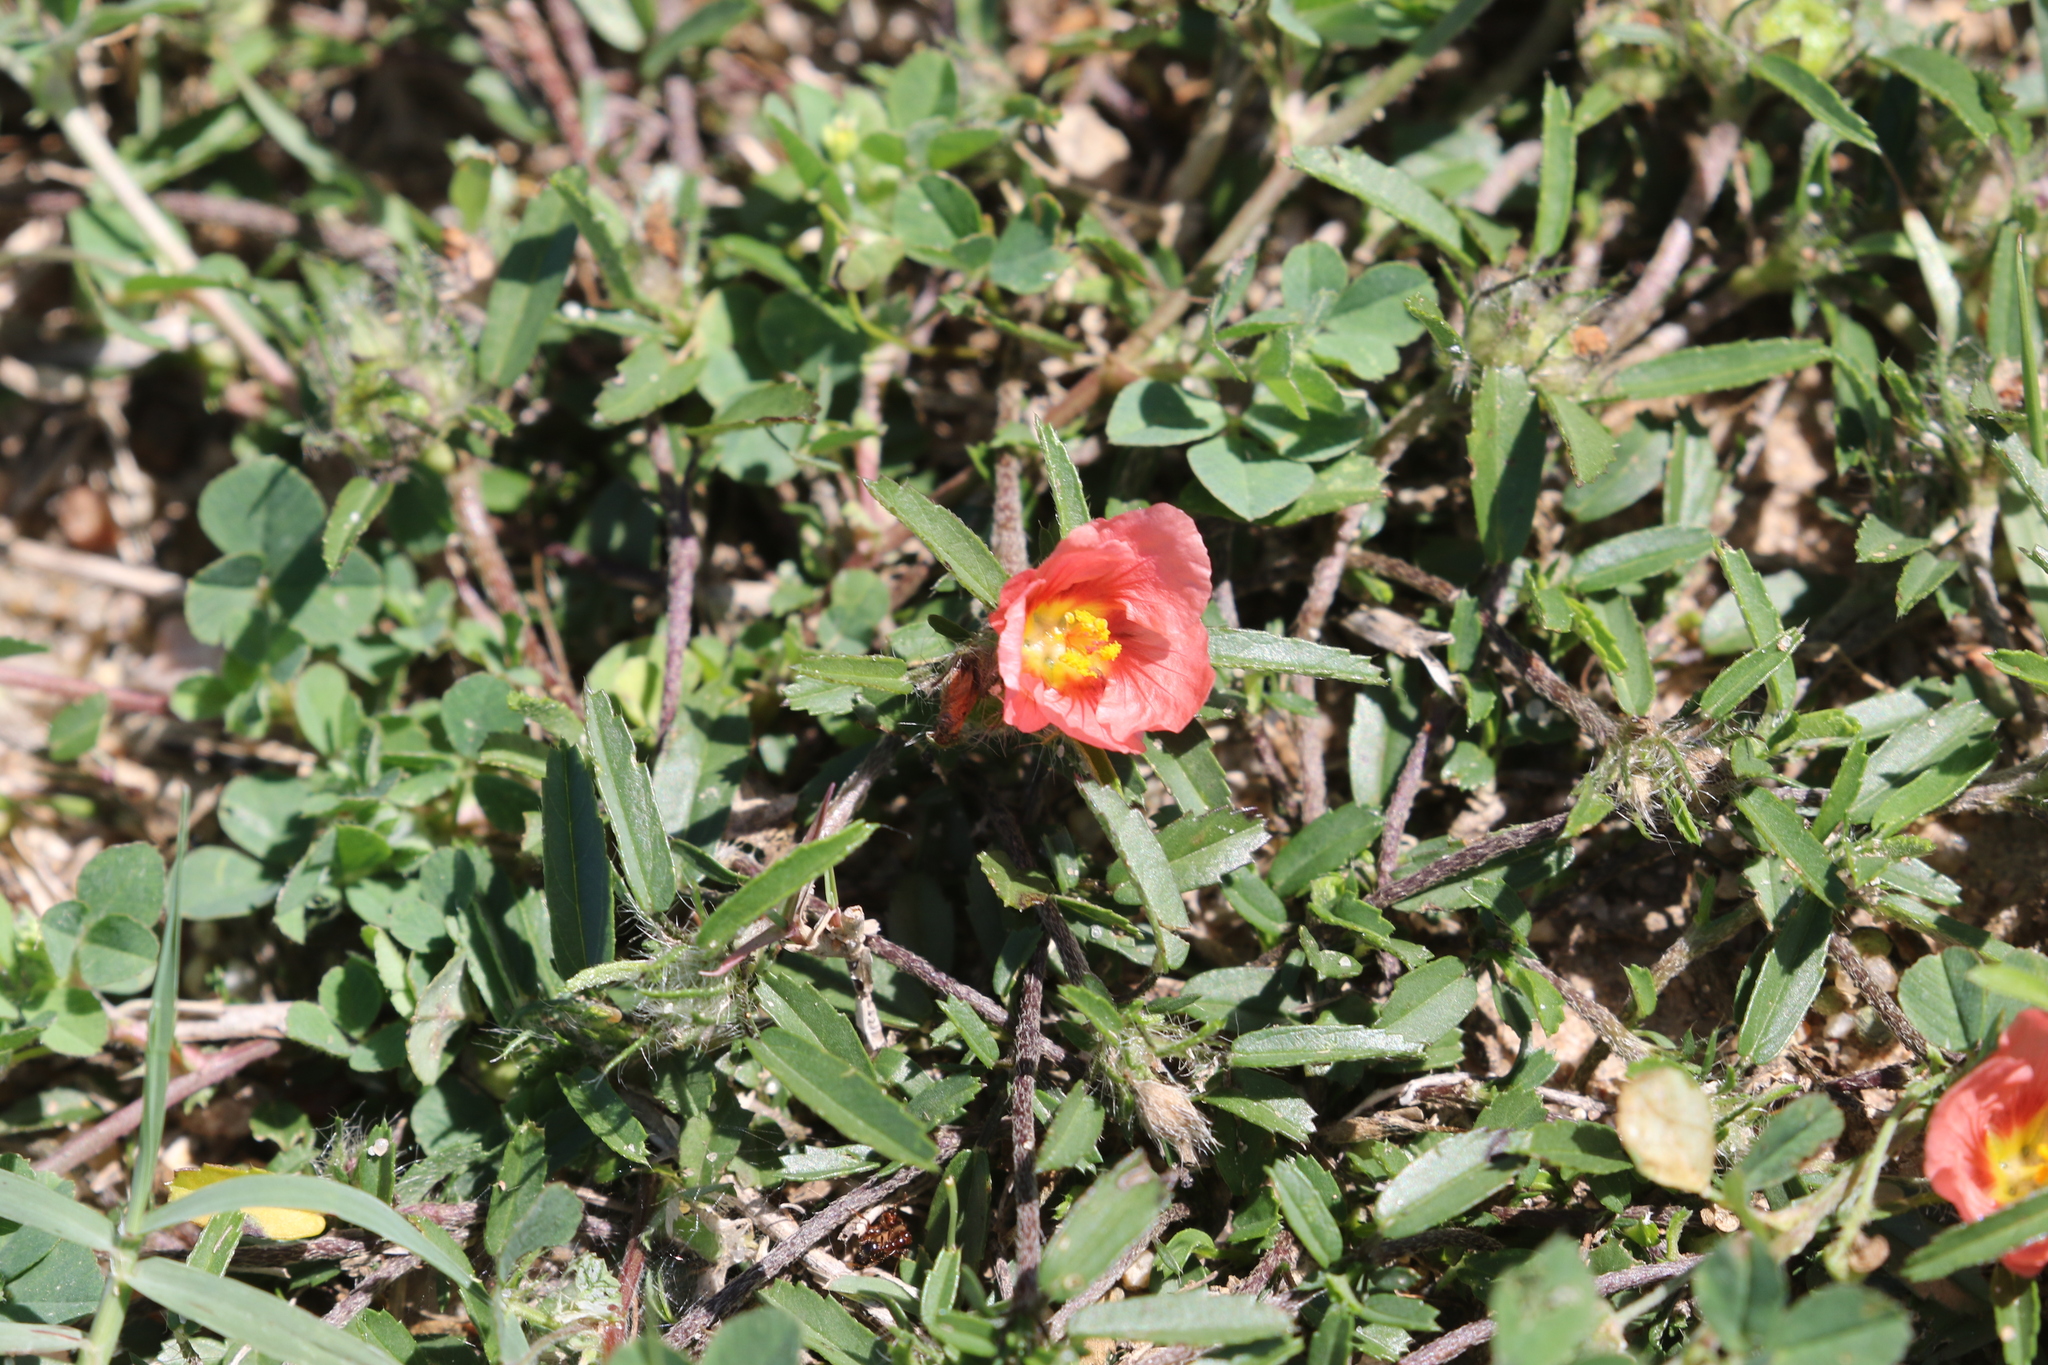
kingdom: Plantae
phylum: Tracheophyta
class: Magnoliopsida
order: Malvales
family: Malvaceae
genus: Sida
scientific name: Sida ciliaris
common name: Bracted fanpetals
